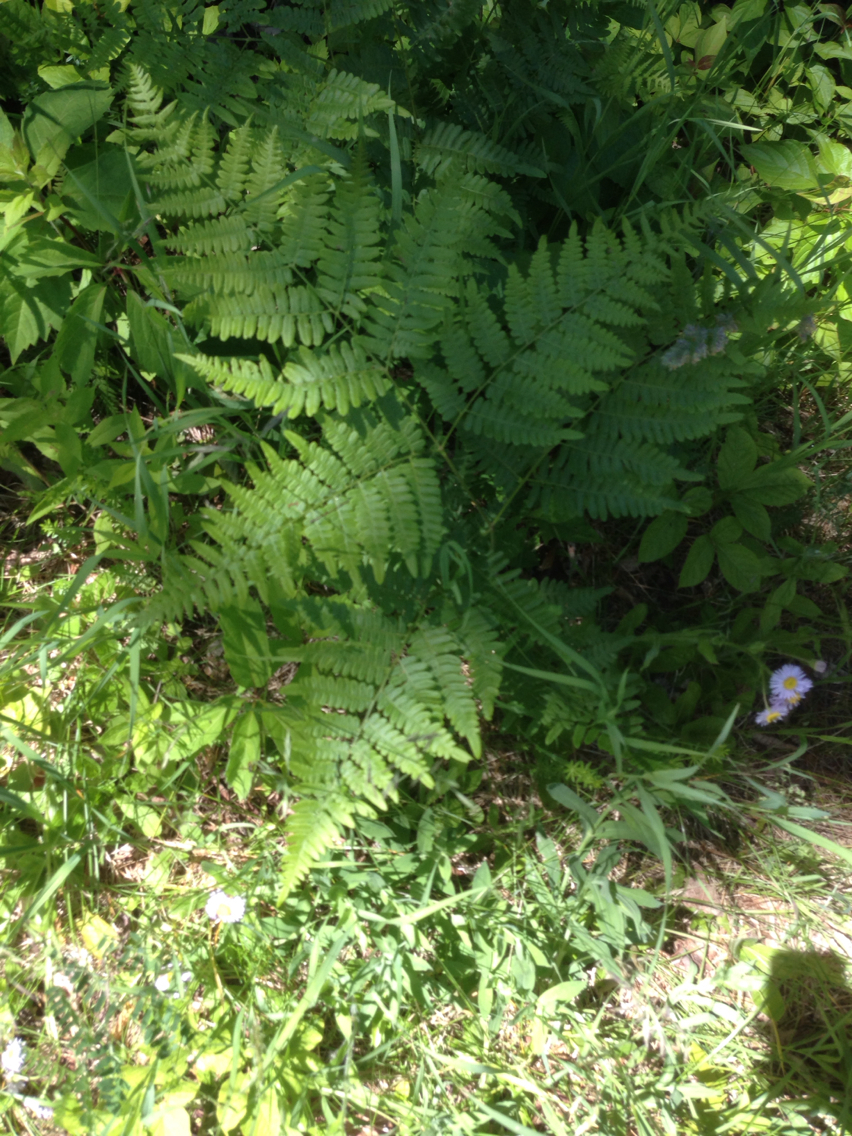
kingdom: Plantae
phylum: Tracheophyta
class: Polypodiopsida
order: Polypodiales
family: Dennstaedtiaceae
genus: Pteridium
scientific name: Pteridium aquilinum
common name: Bracken
